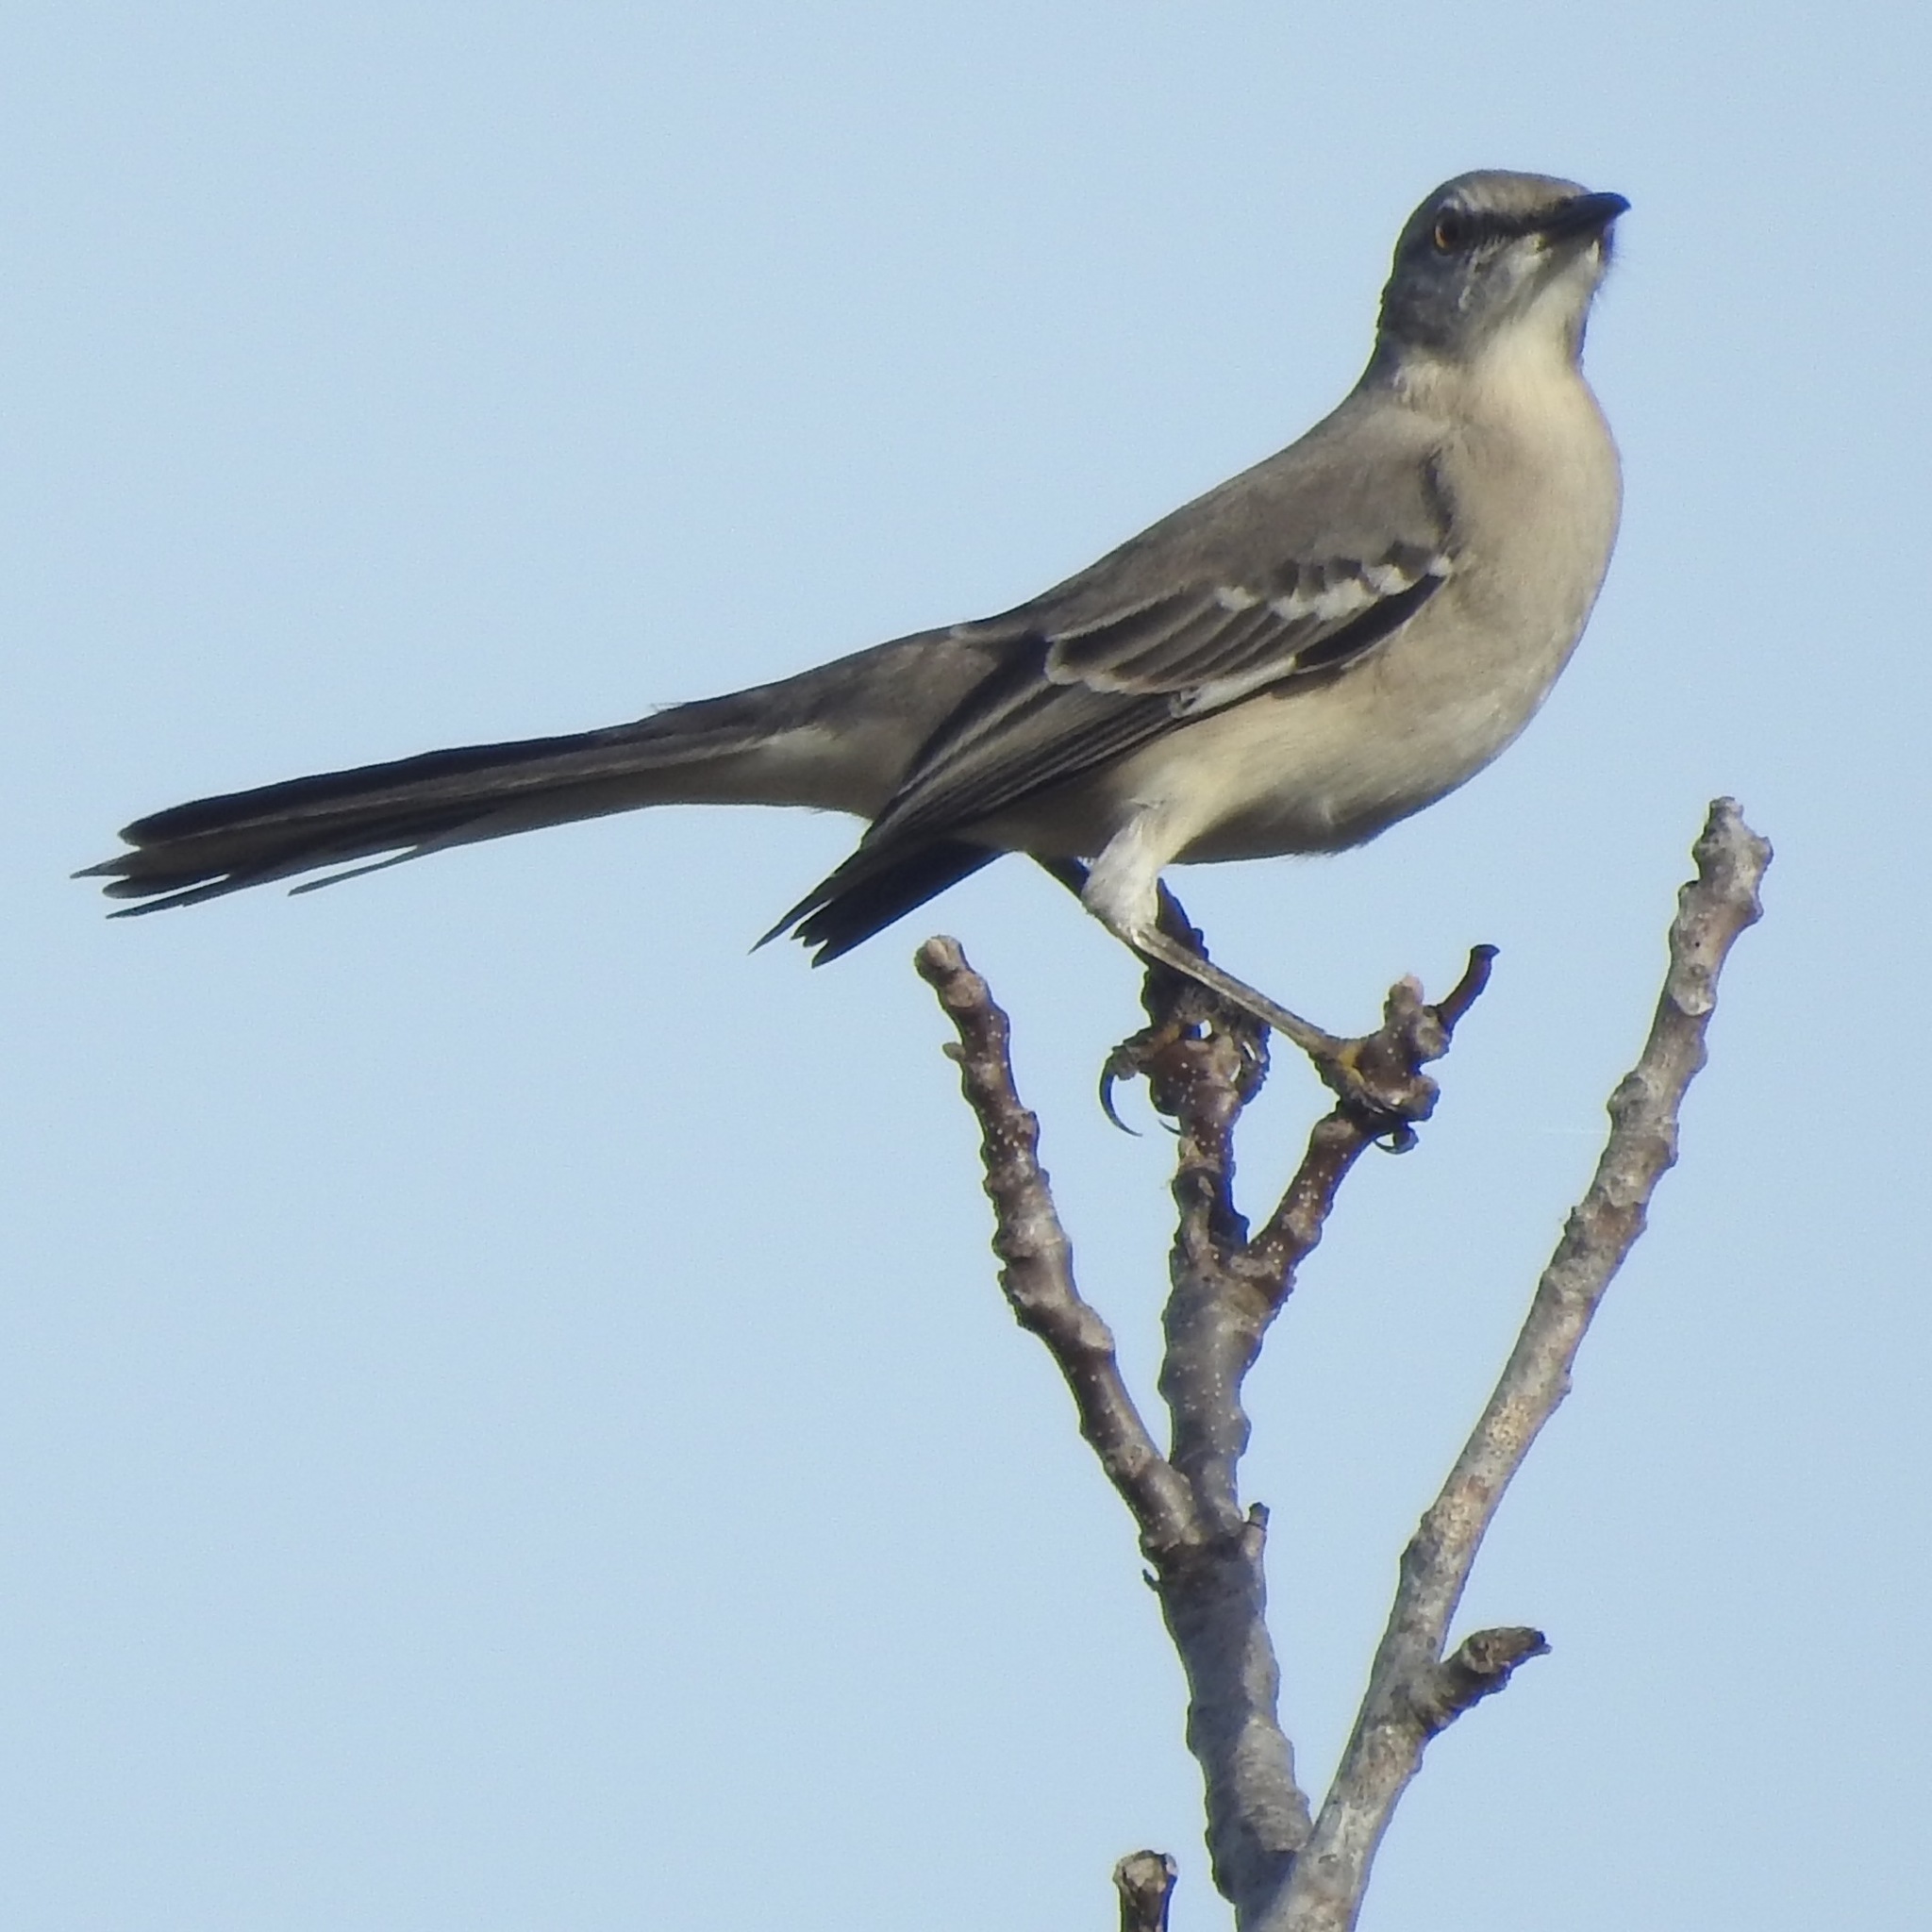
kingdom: Animalia
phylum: Chordata
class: Aves
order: Passeriformes
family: Mimidae
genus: Mimus
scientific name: Mimus polyglottos
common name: Northern mockingbird
